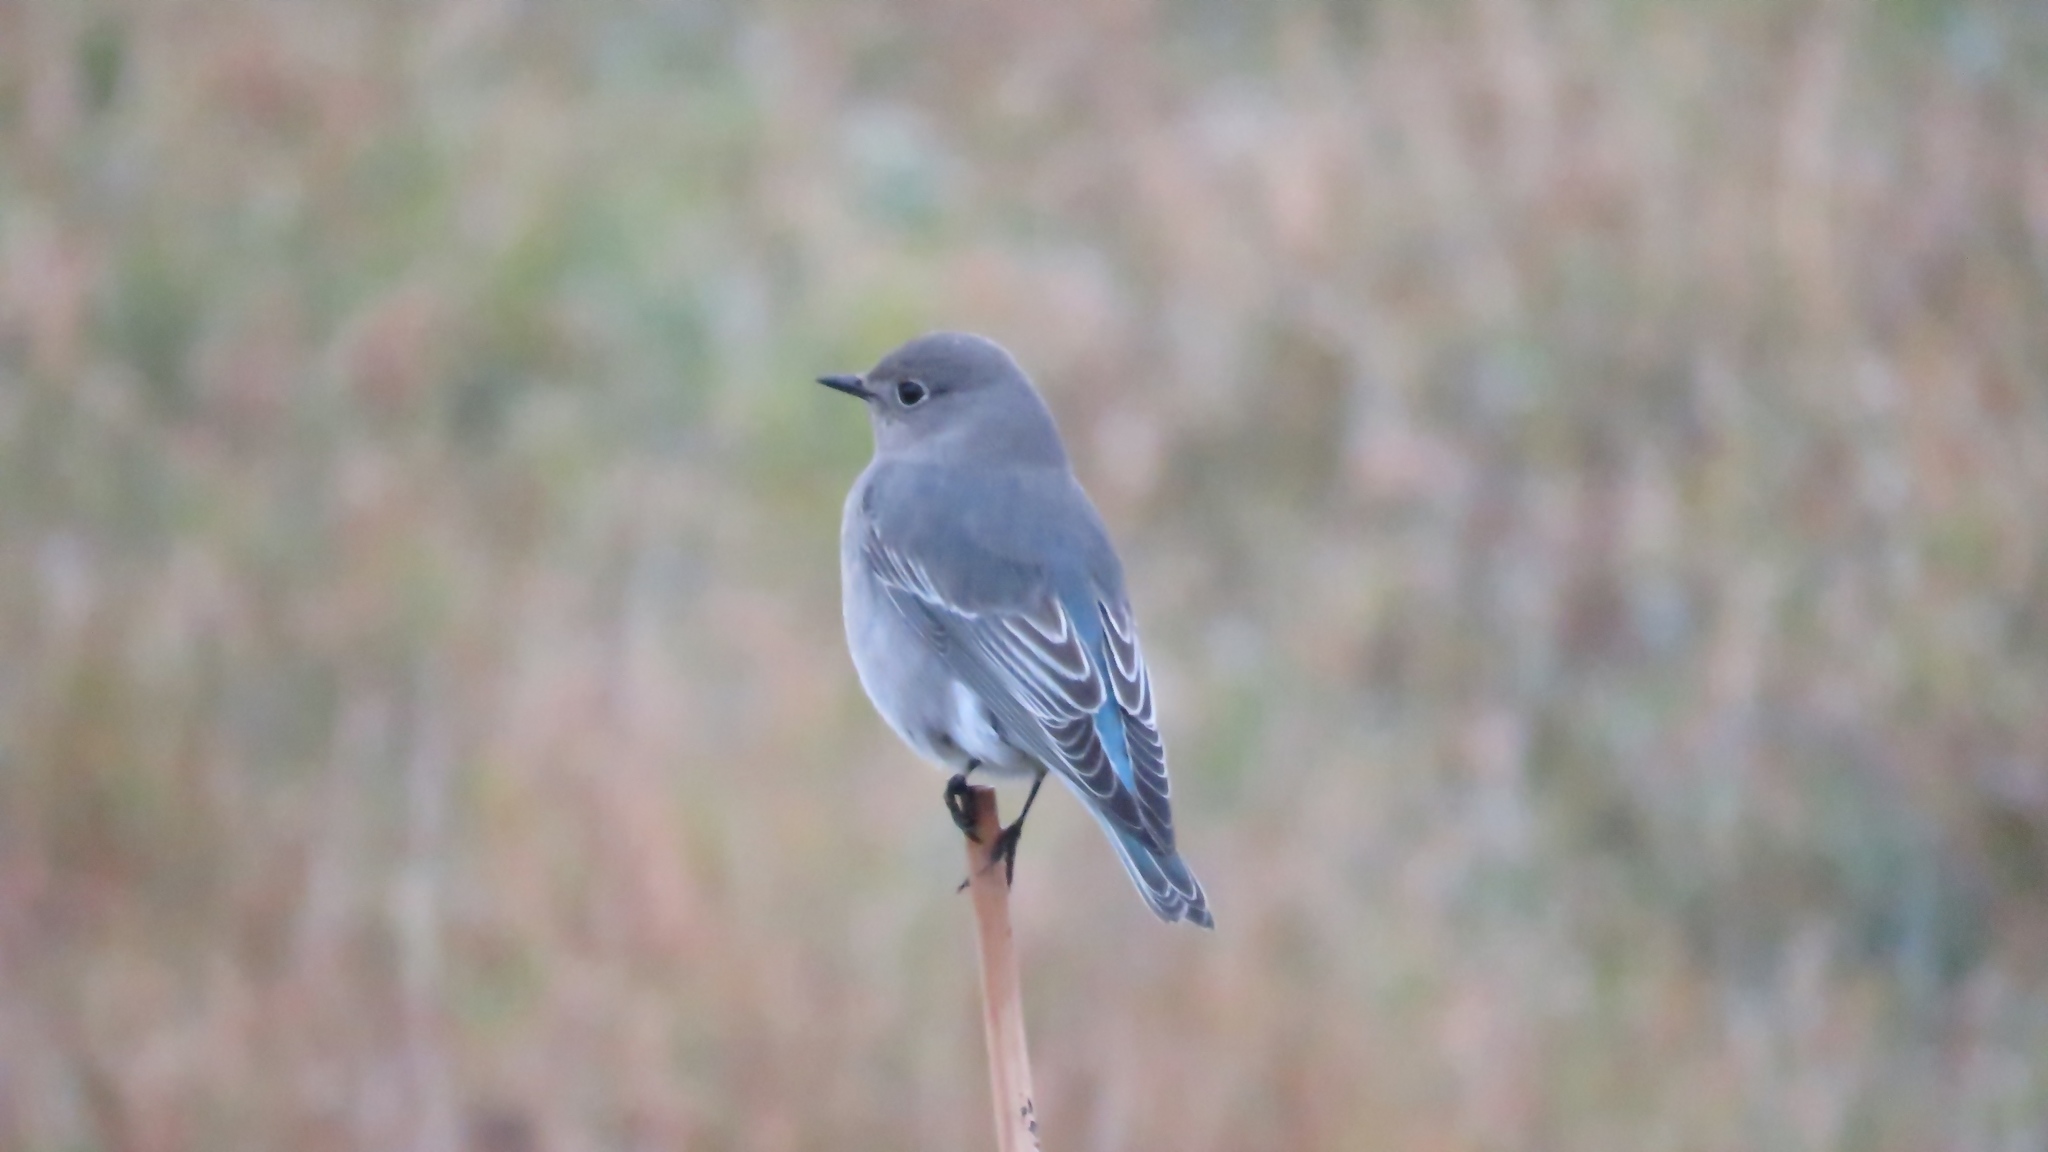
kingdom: Animalia
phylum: Chordata
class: Aves
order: Passeriformes
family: Turdidae
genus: Sialia
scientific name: Sialia currucoides
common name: Mountain bluebird
